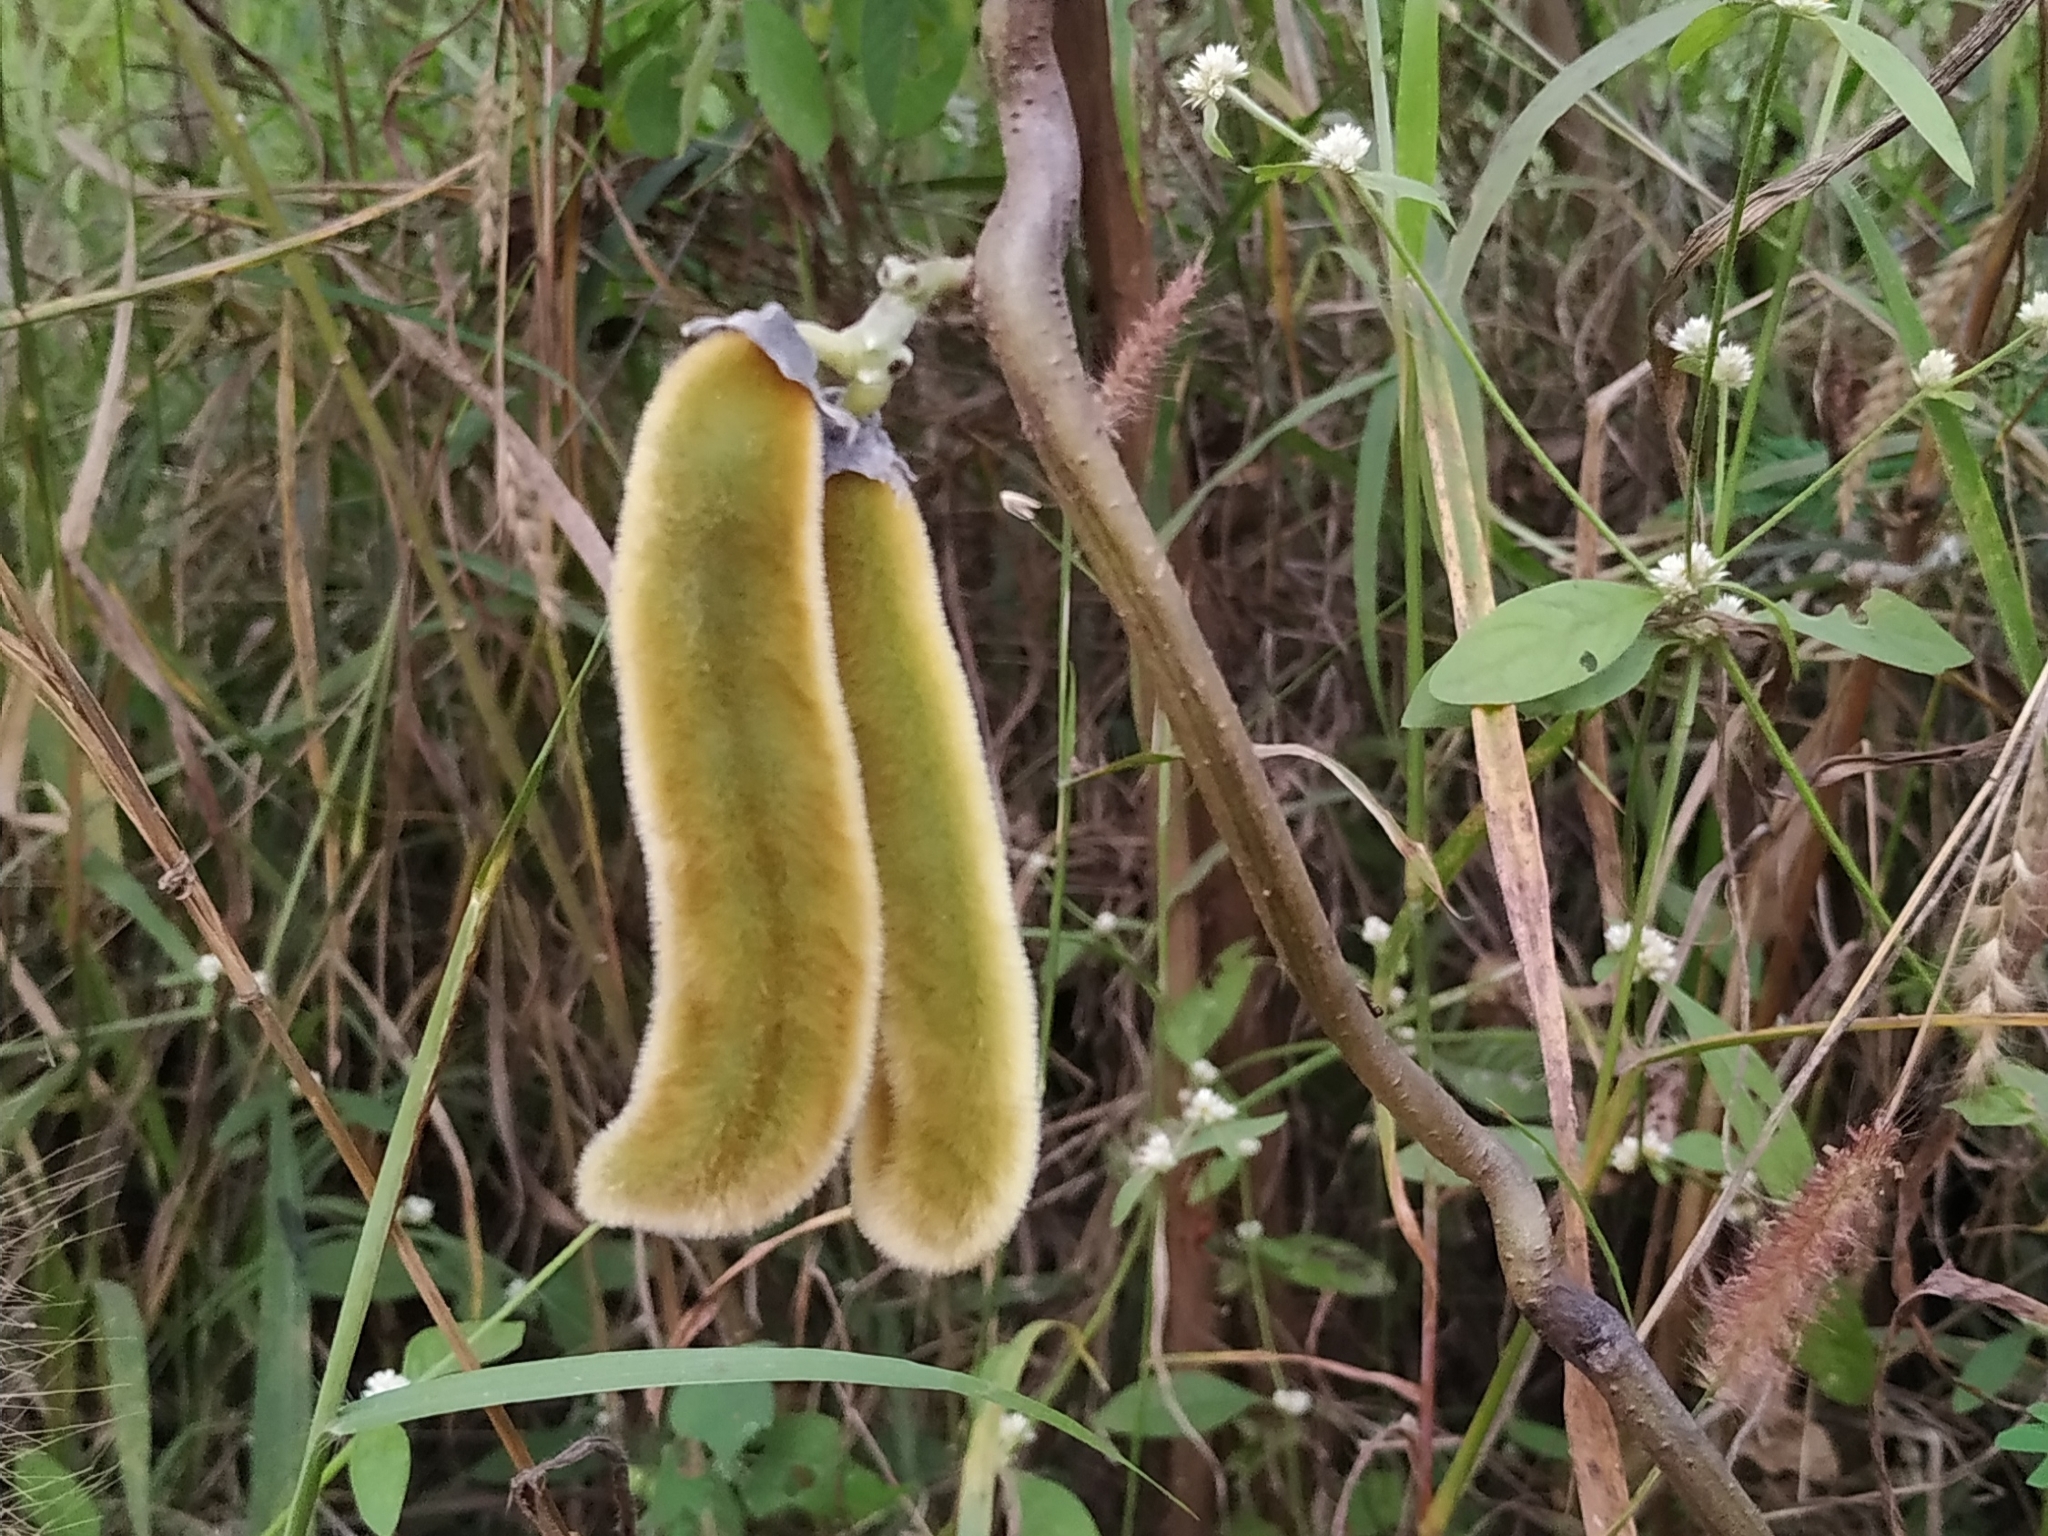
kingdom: Plantae
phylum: Tracheophyta
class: Magnoliopsida
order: Fabales
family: Fabaceae
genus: Mucuna
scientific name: Mucuna pruriens
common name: Cow-itch
